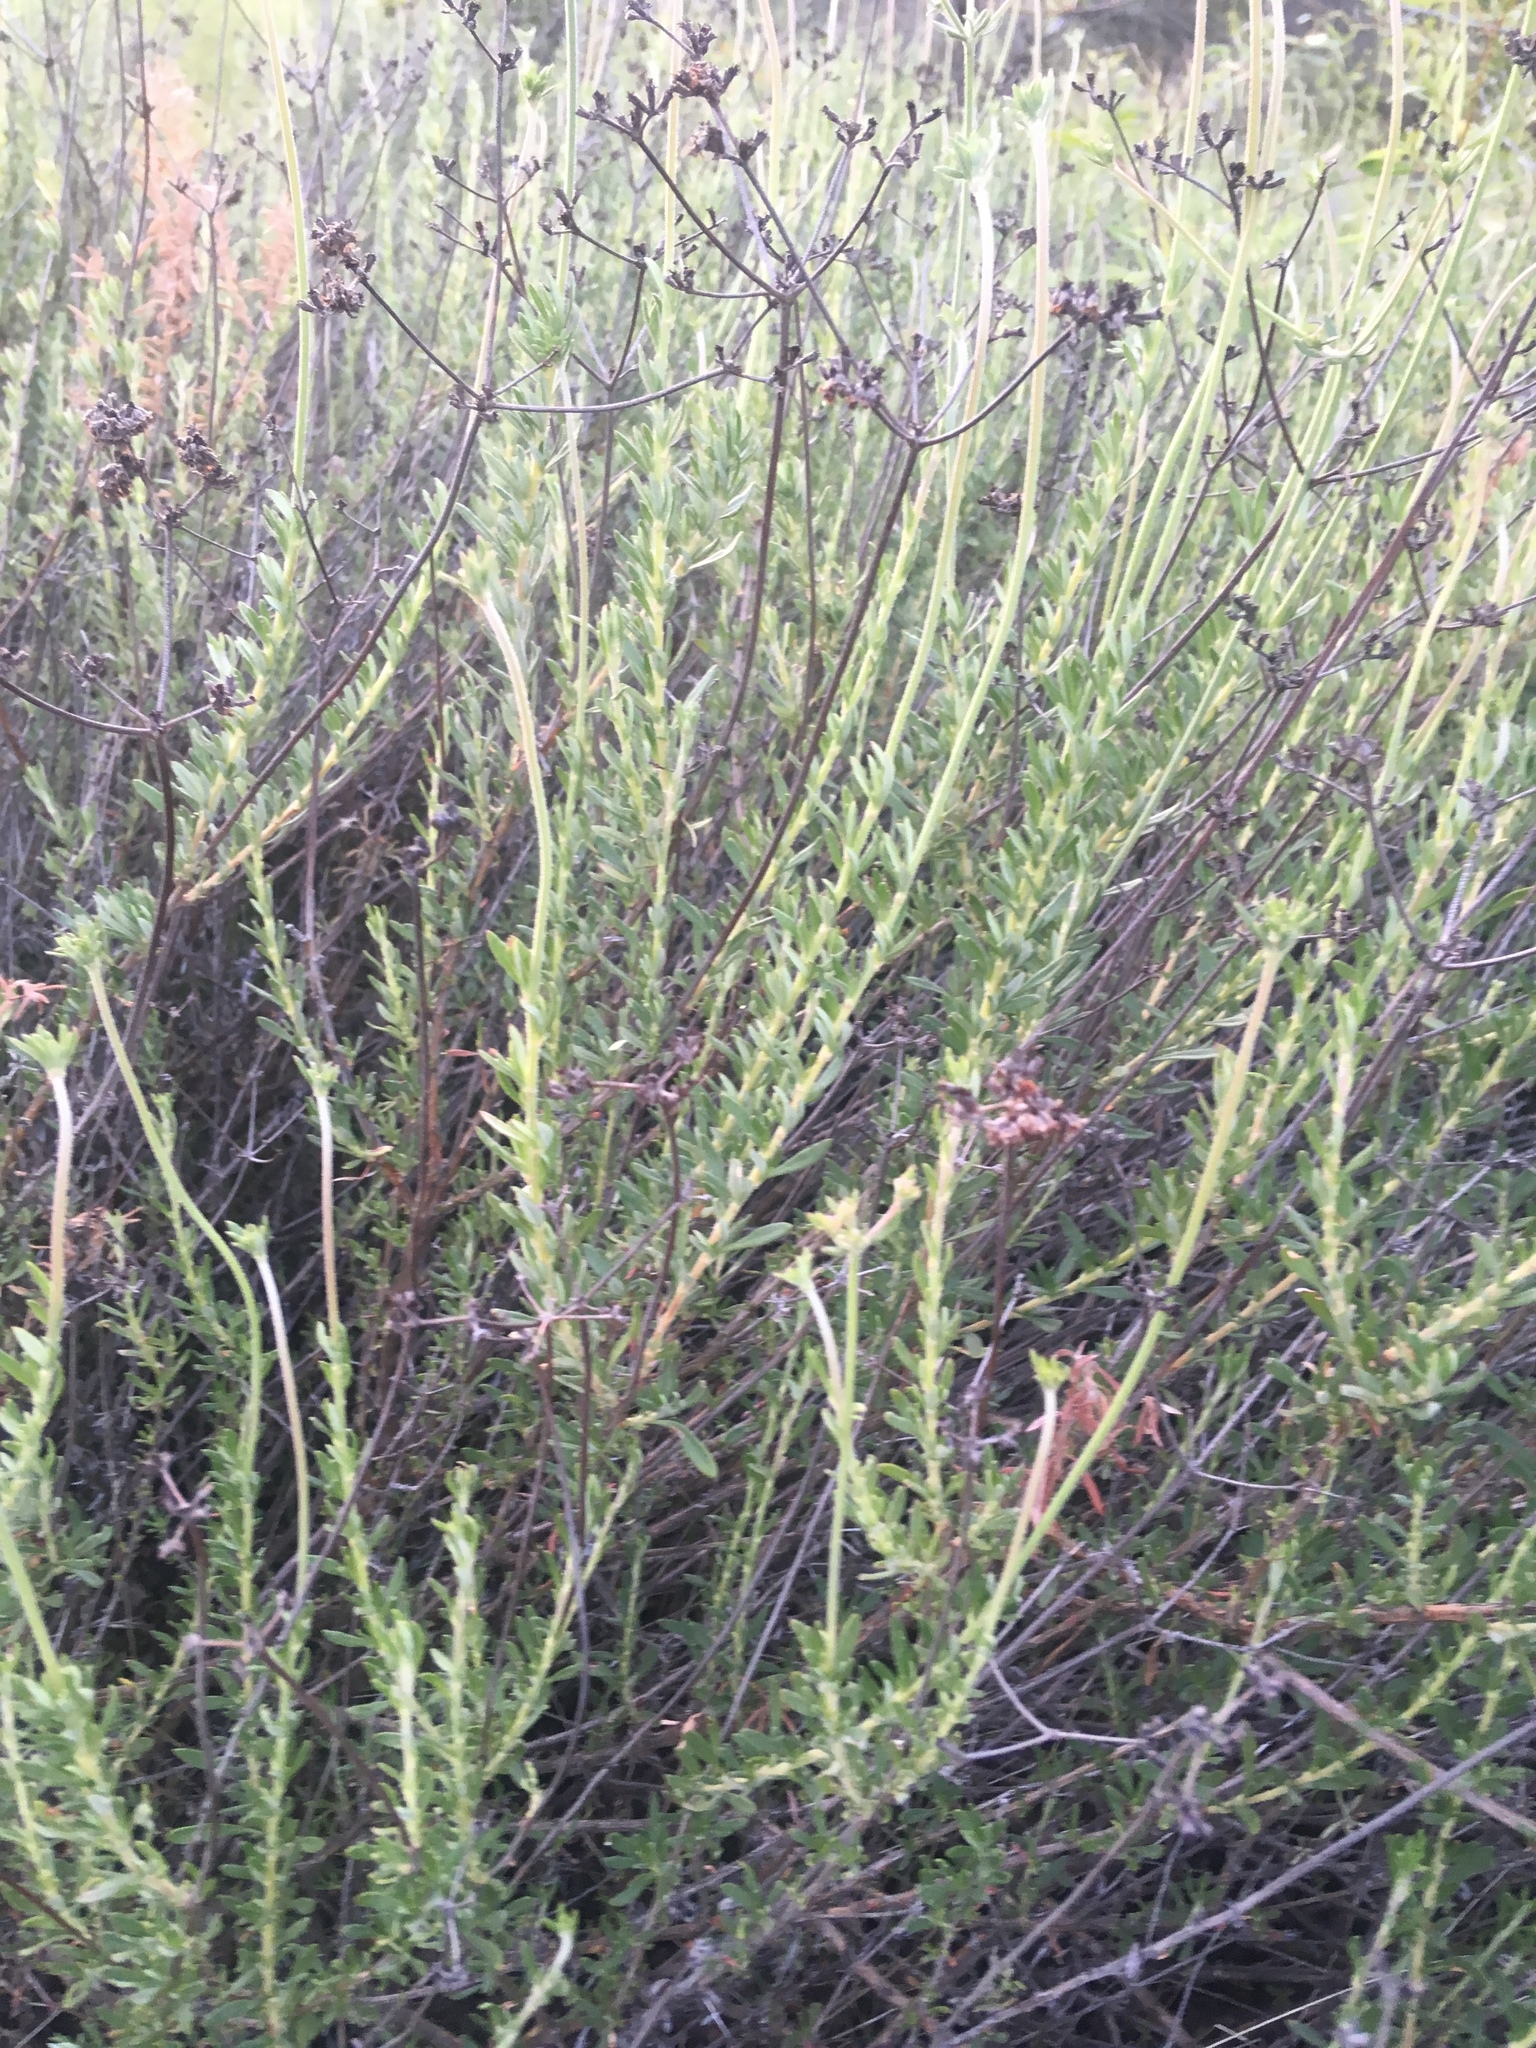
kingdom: Plantae
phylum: Tracheophyta
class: Magnoliopsida
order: Caryophyllales
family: Polygonaceae
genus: Eriogonum
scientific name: Eriogonum fasciculatum
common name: California wild buckwheat
